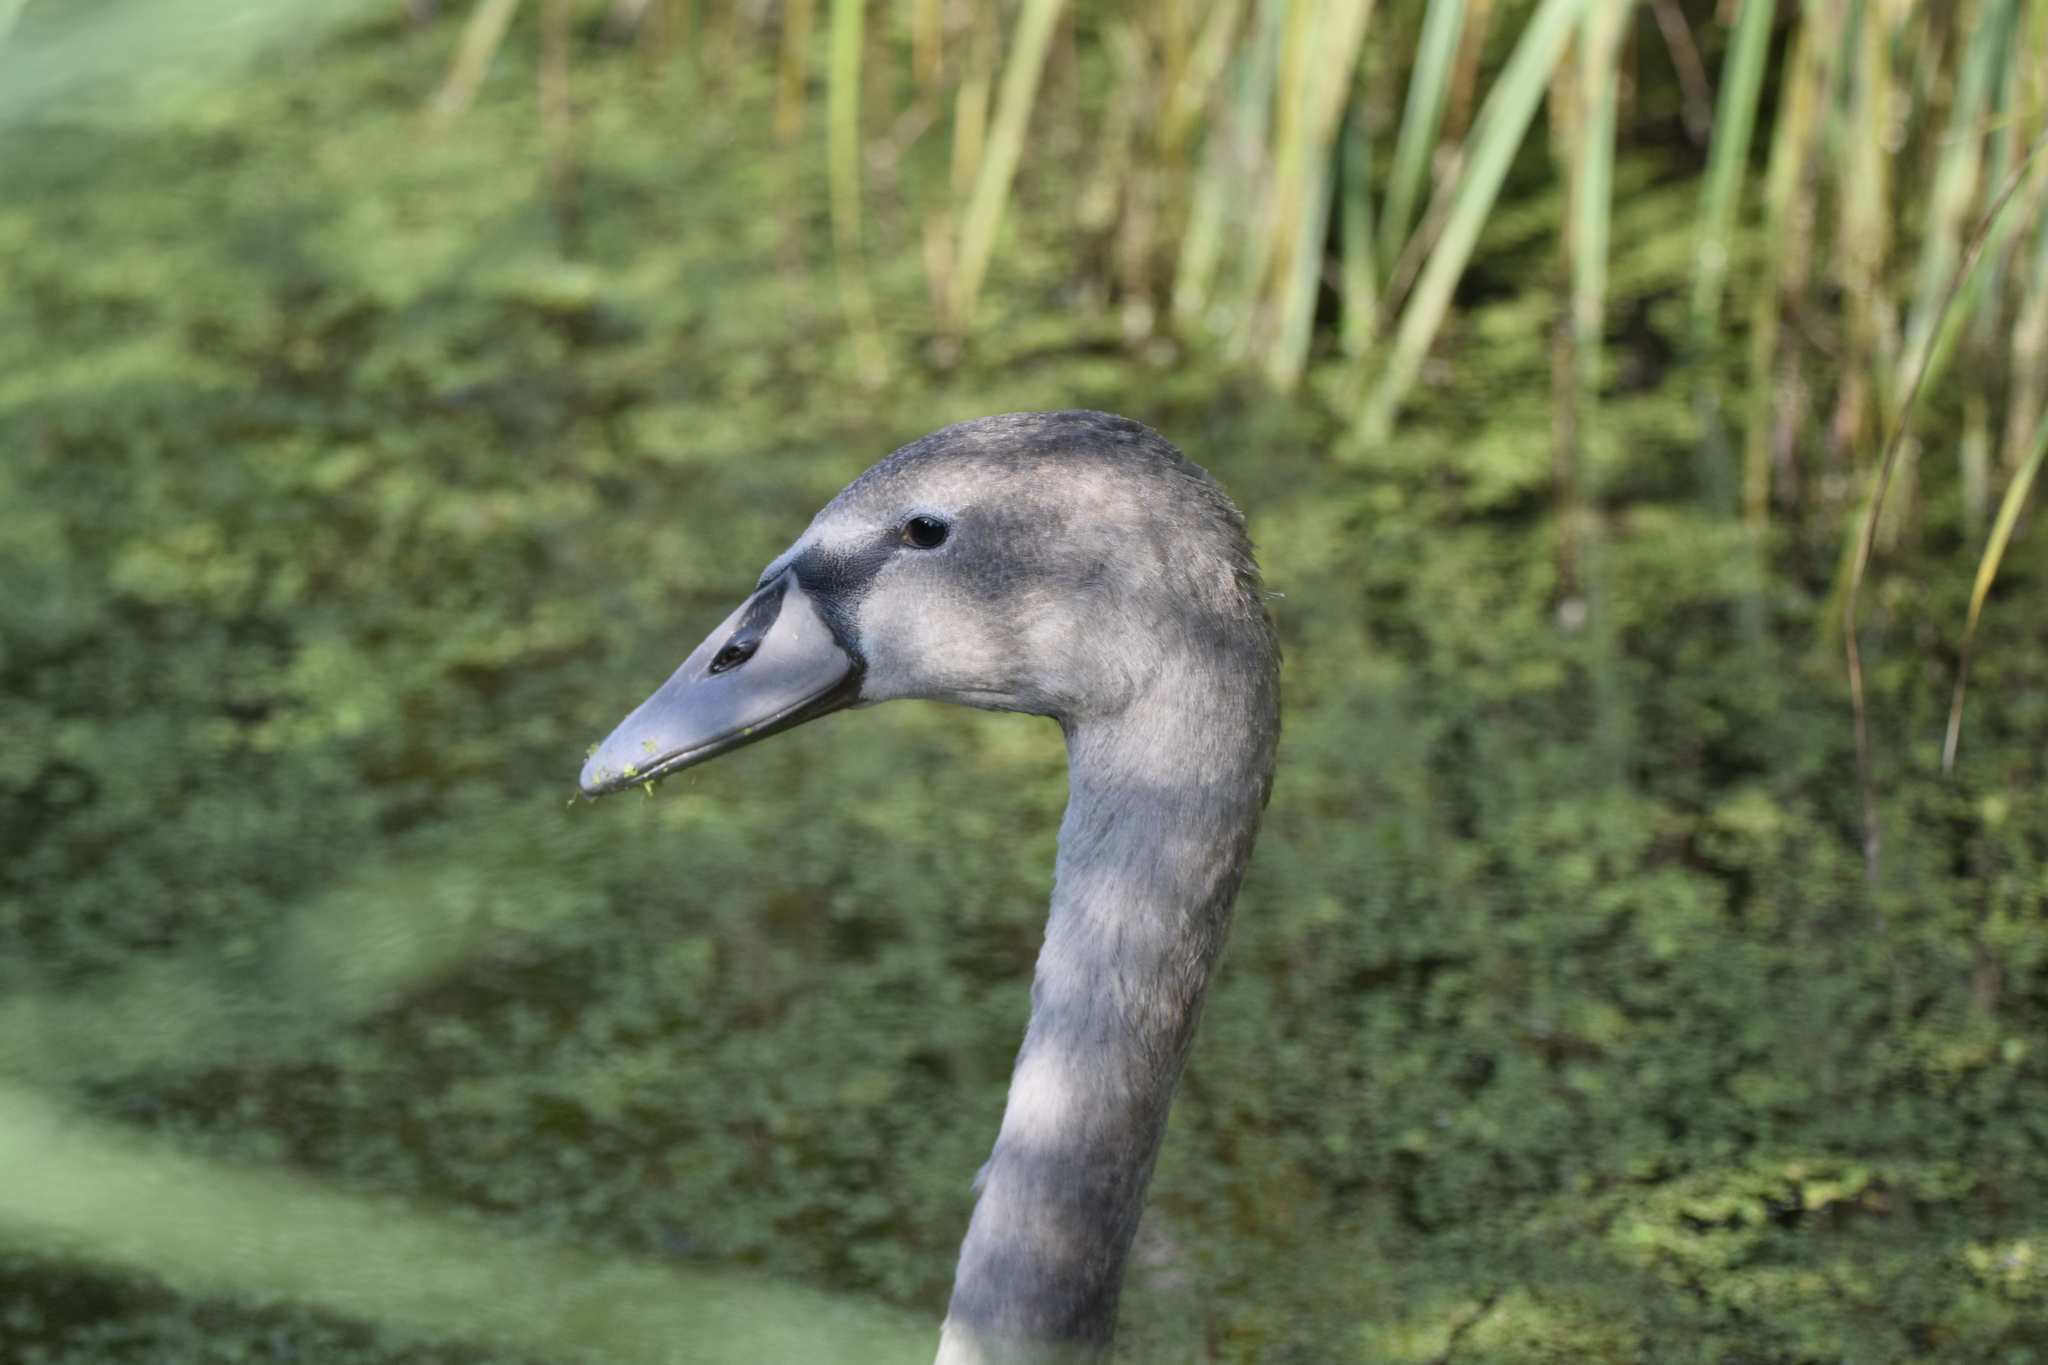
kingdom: Animalia
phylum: Chordata
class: Aves
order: Anseriformes
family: Anatidae
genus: Cygnus
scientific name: Cygnus olor
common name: Mute swan
